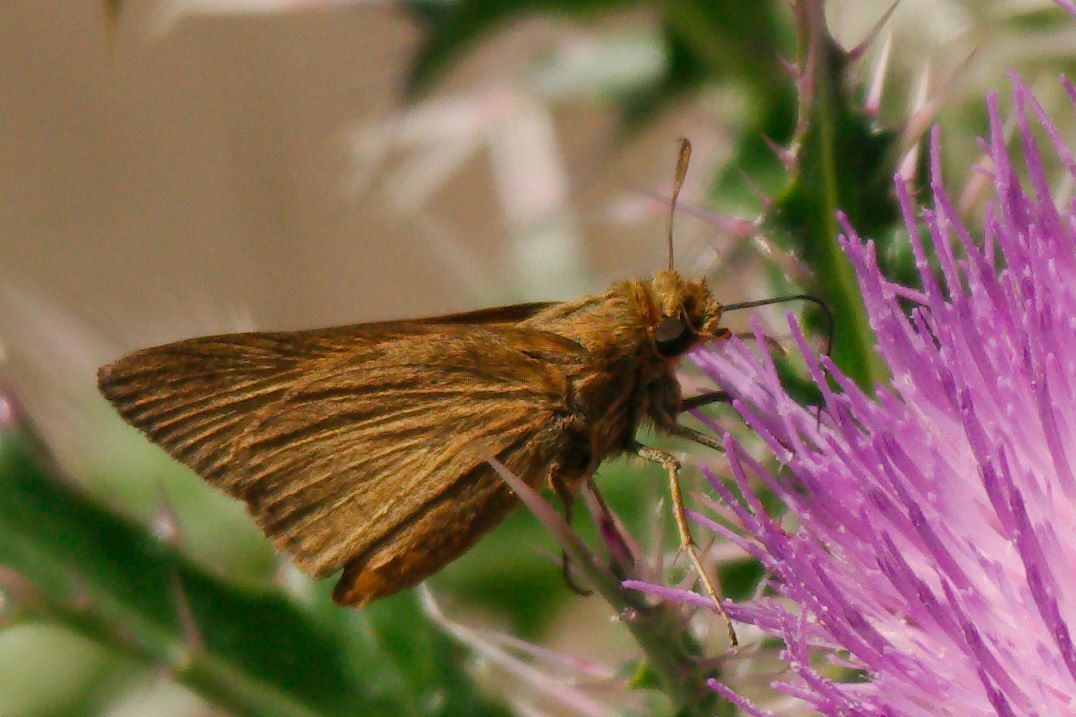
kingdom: Animalia
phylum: Arthropoda
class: Insecta
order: Lepidoptera
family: Hesperiidae
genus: Euphyes
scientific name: Euphyes pilatka
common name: Palatka skipper
